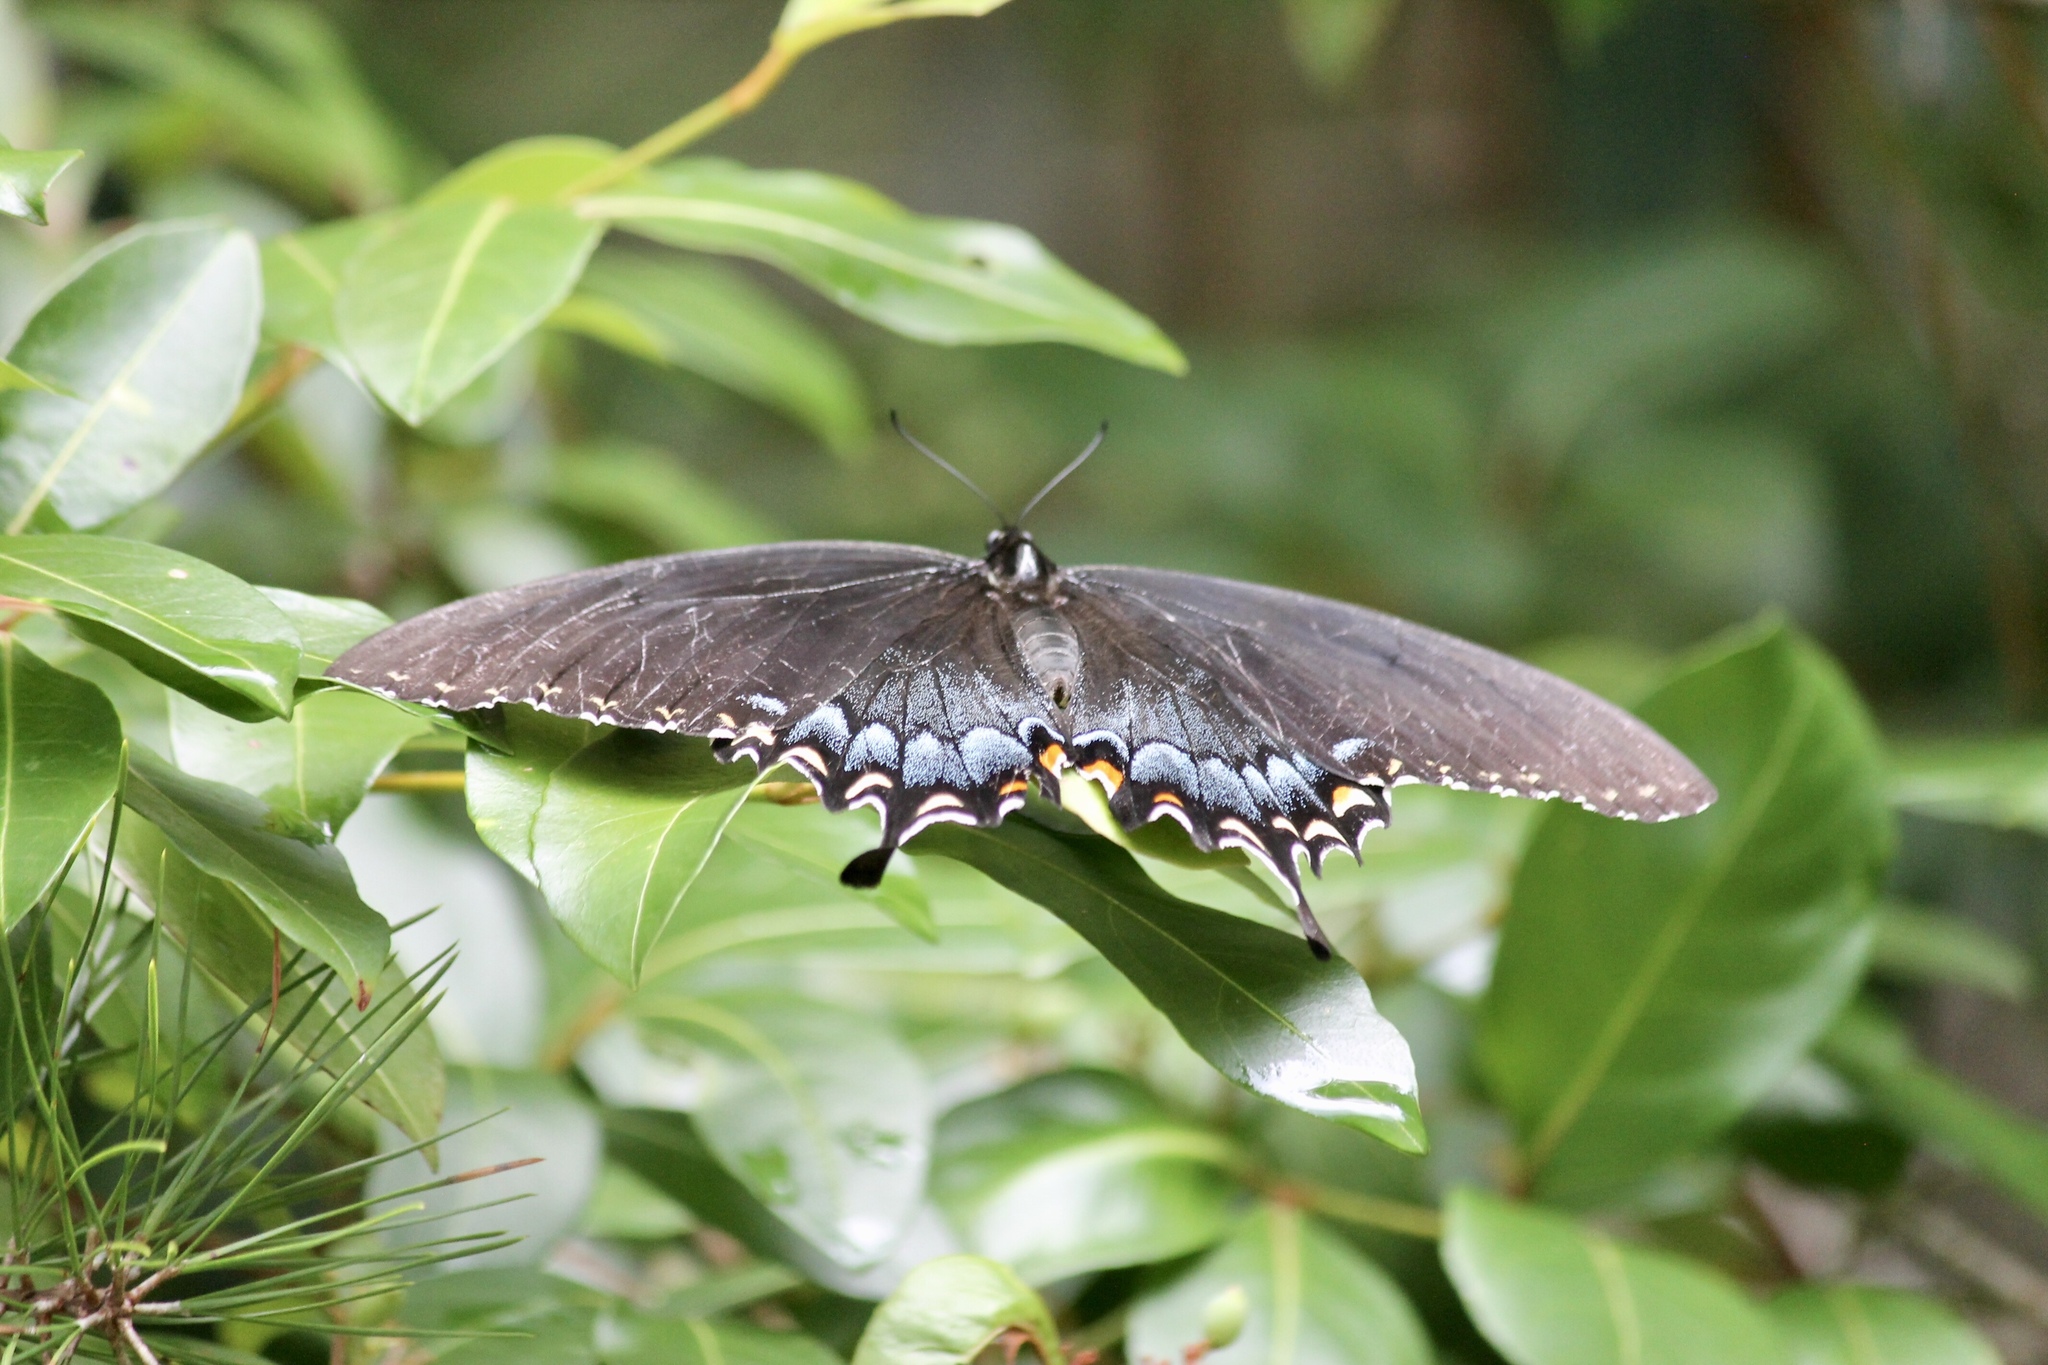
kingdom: Animalia
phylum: Arthropoda
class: Insecta
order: Lepidoptera
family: Papilionidae
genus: Papilio
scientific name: Papilio glaucus
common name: Tiger swallowtail
